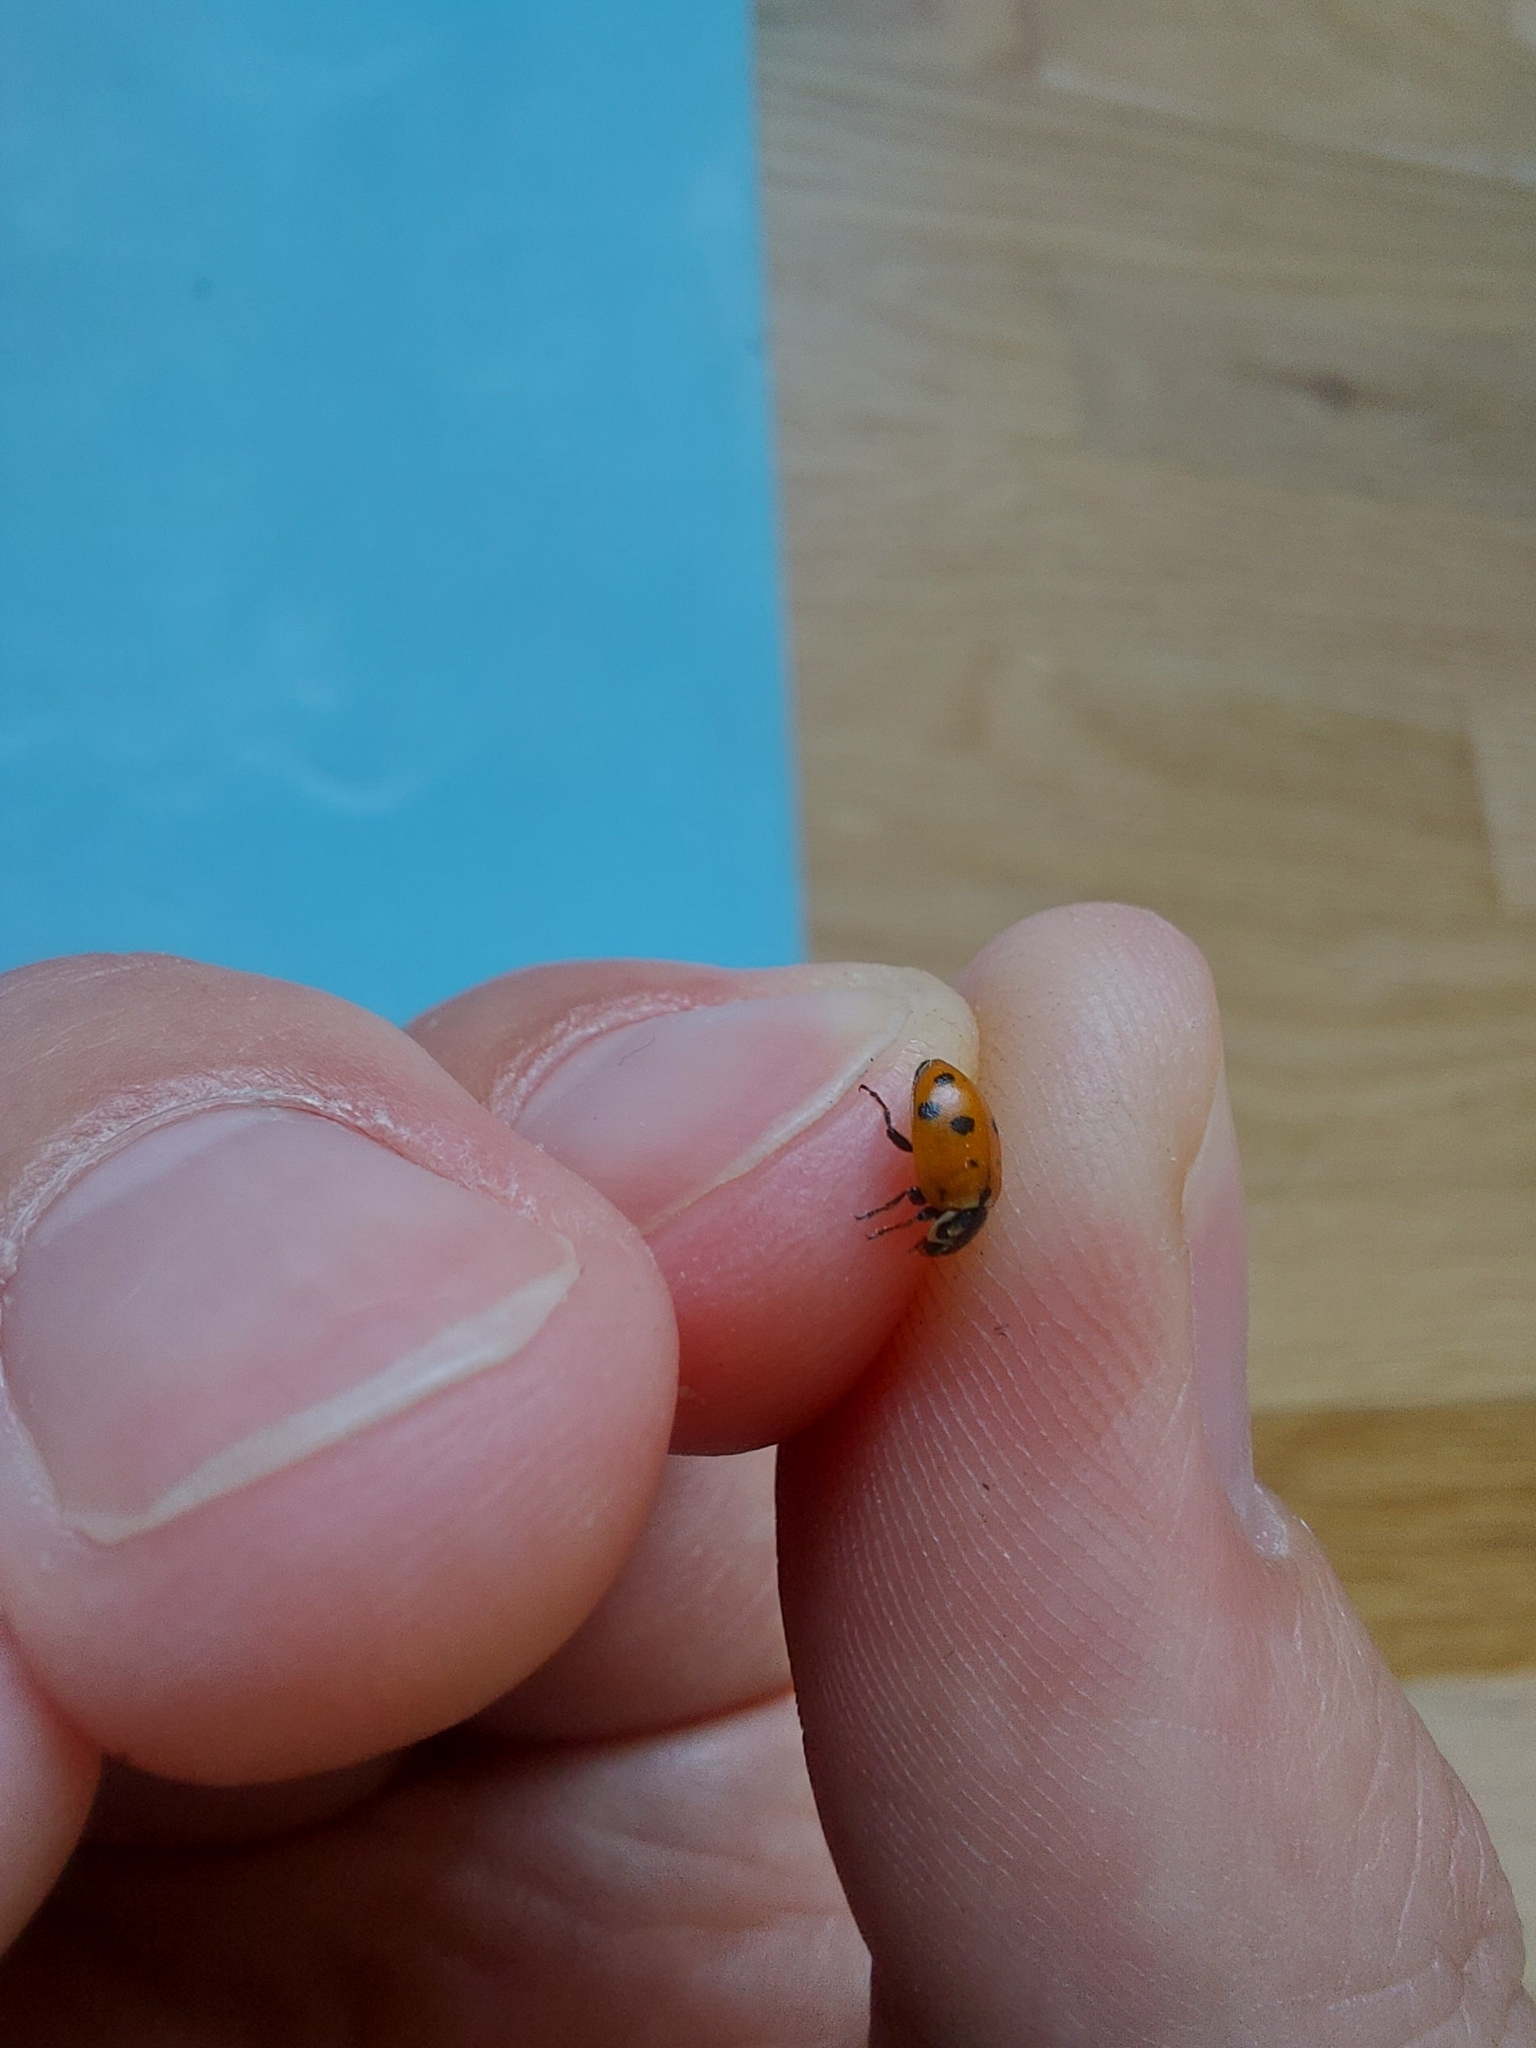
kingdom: Animalia
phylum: Arthropoda
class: Insecta
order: Coleoptera
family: Coccinellidae
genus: Hippodamia
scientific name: Hippodamia variegata
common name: Ladybird beetle
